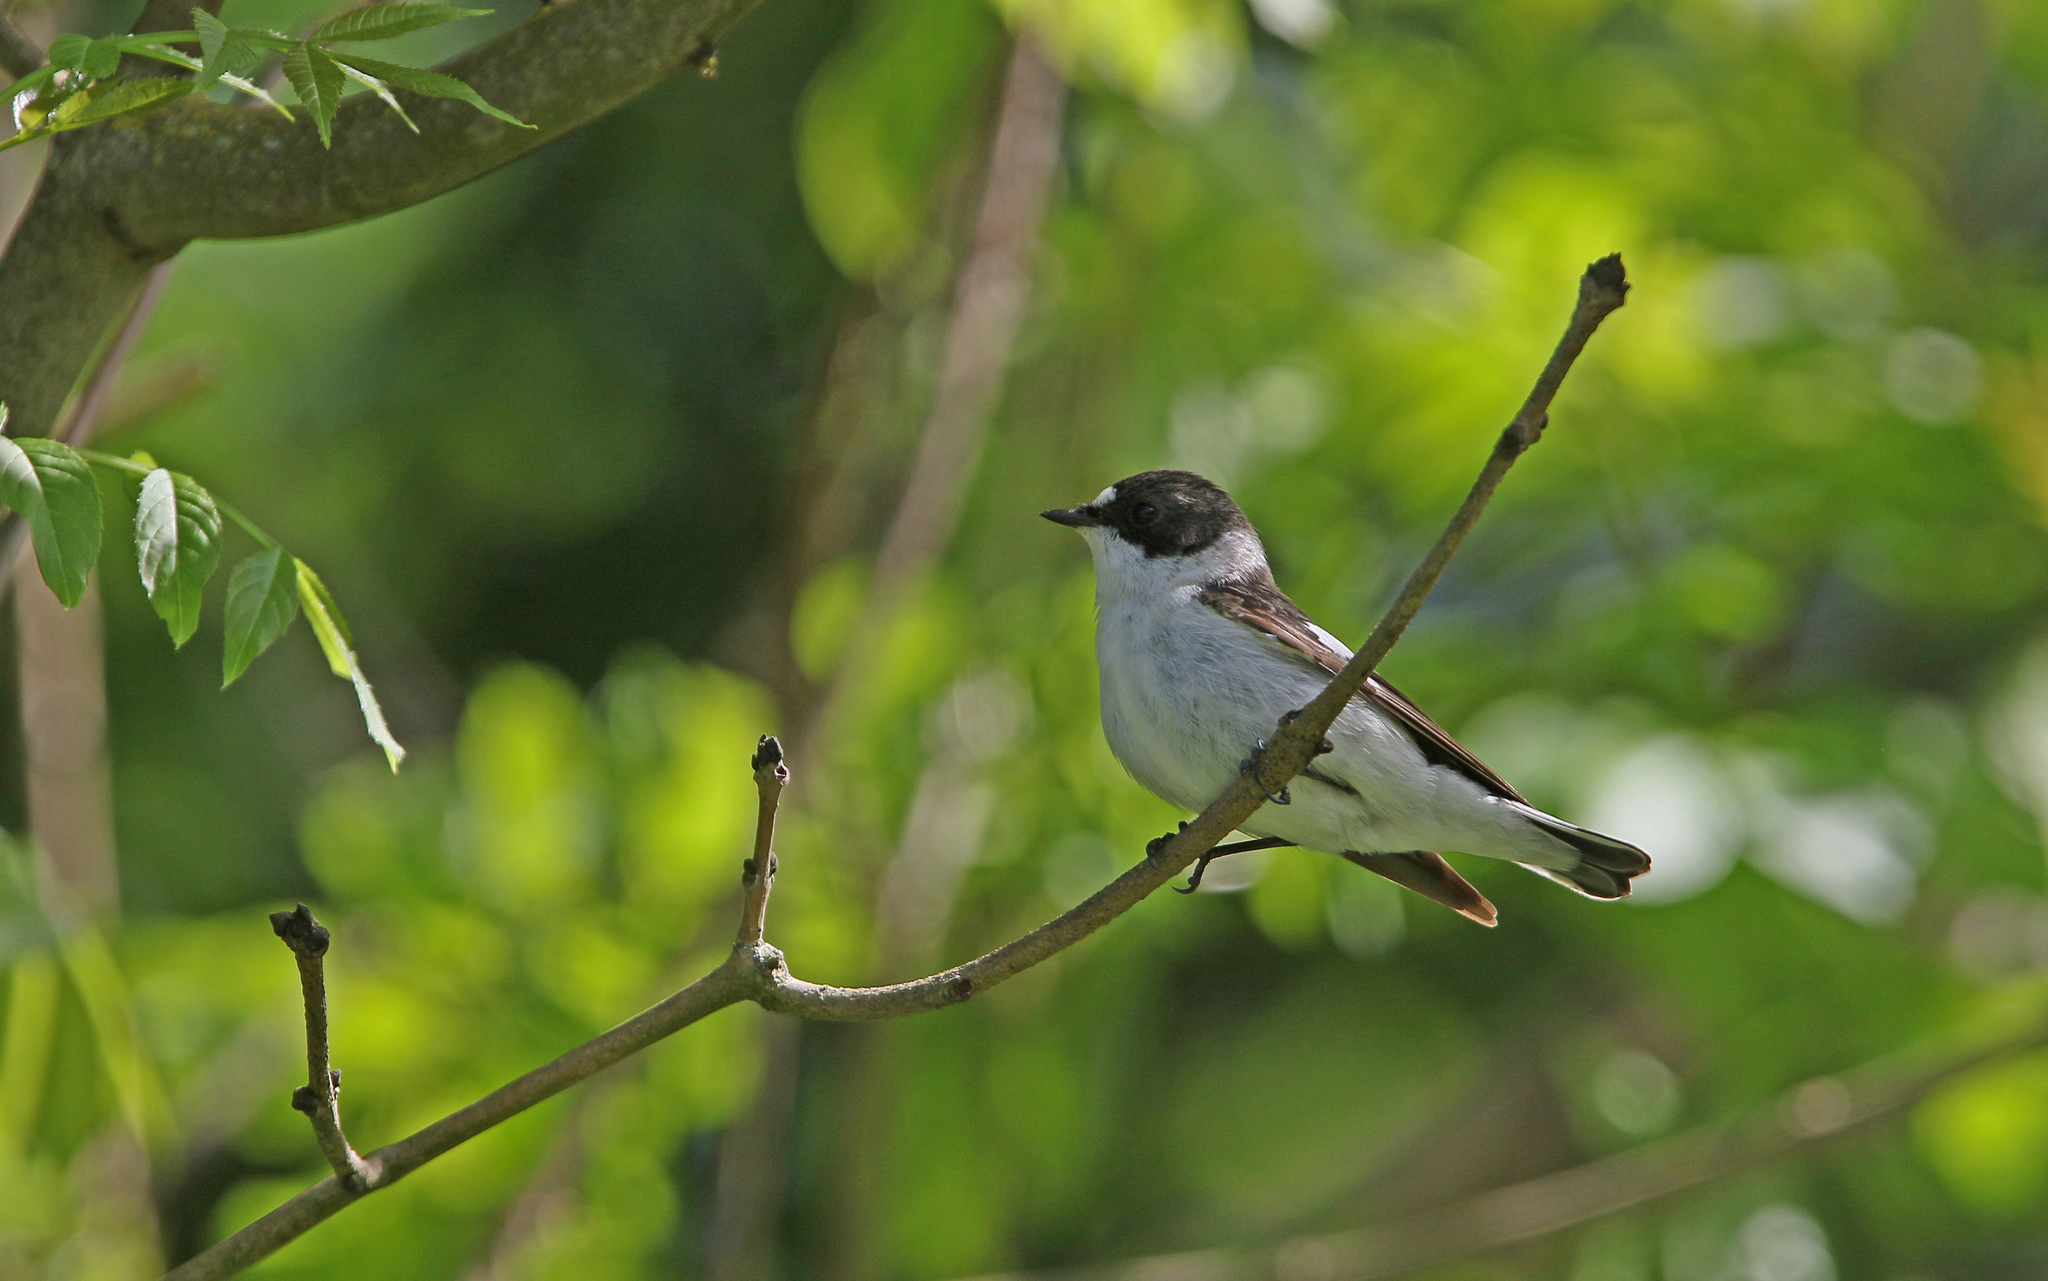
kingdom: Animalia
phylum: Chordata
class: Aves
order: Passeriformes
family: Muscicapidae
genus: Ficedula
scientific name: Ficedula albicollis
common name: Collared flycatcher
